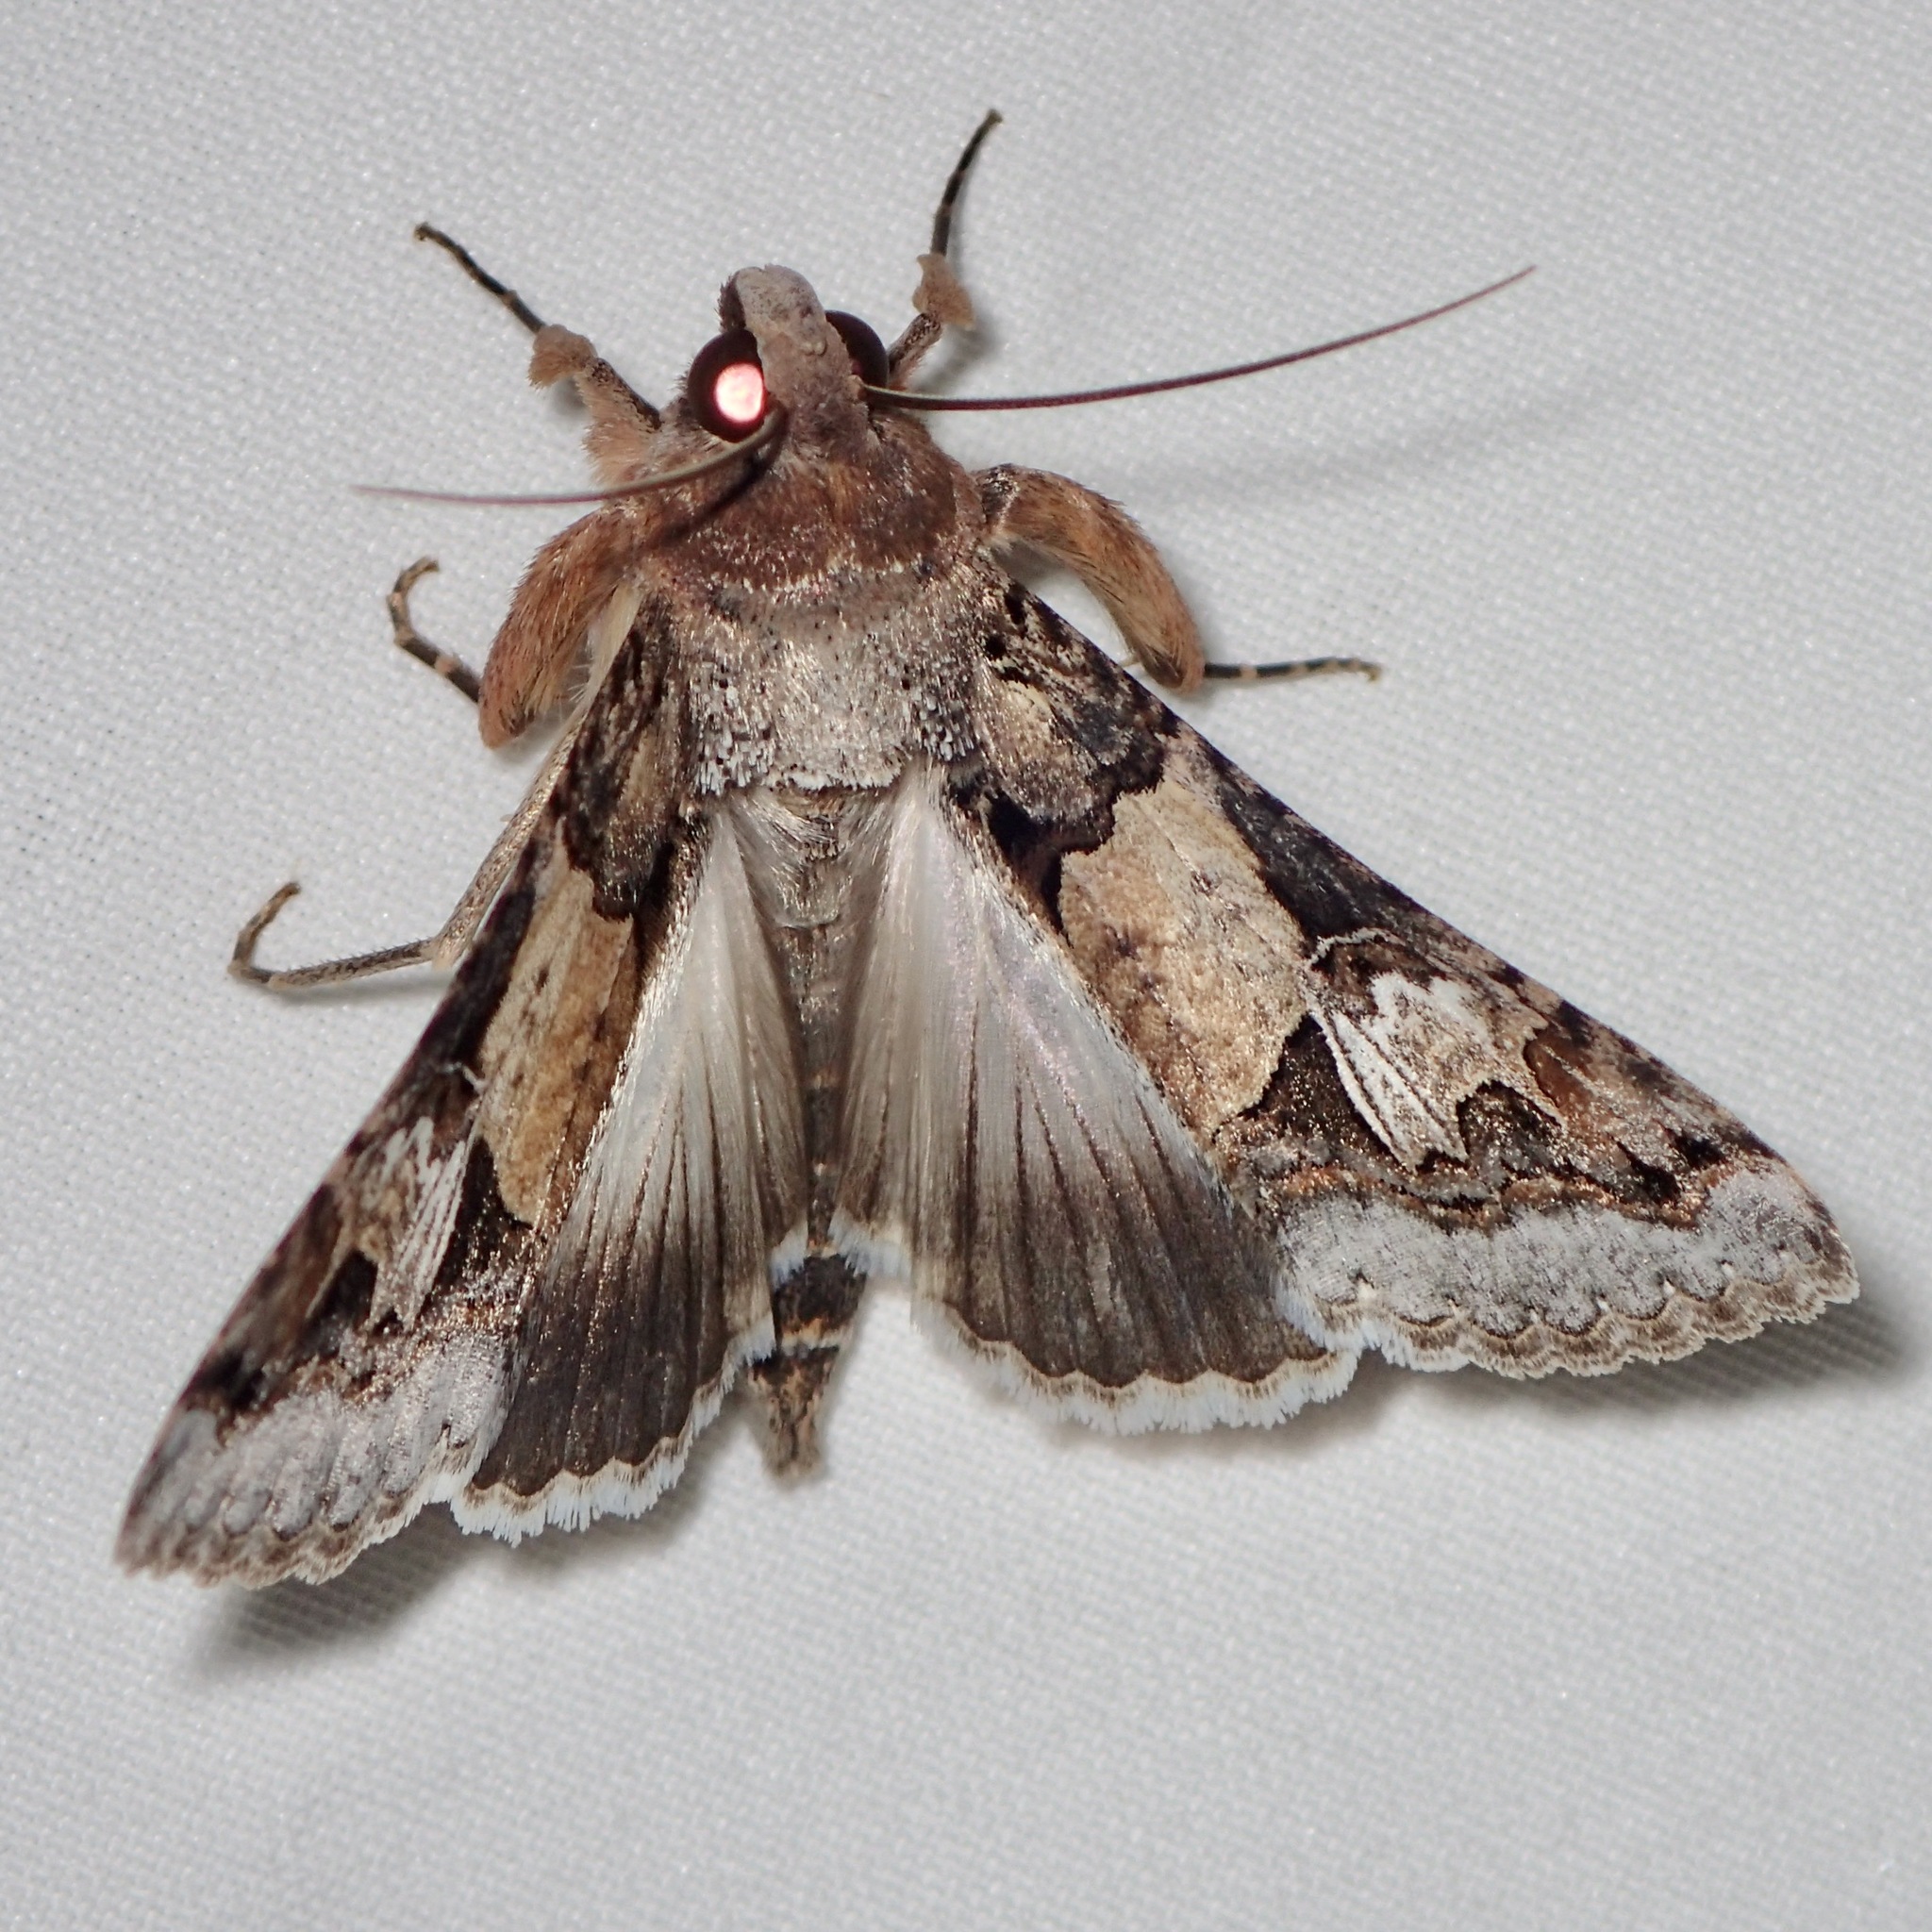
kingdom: Animalia
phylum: Arthropoda
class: Insecta
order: Lepidoptera
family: Erebidae
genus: Melipotis
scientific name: Melipotis novanda
